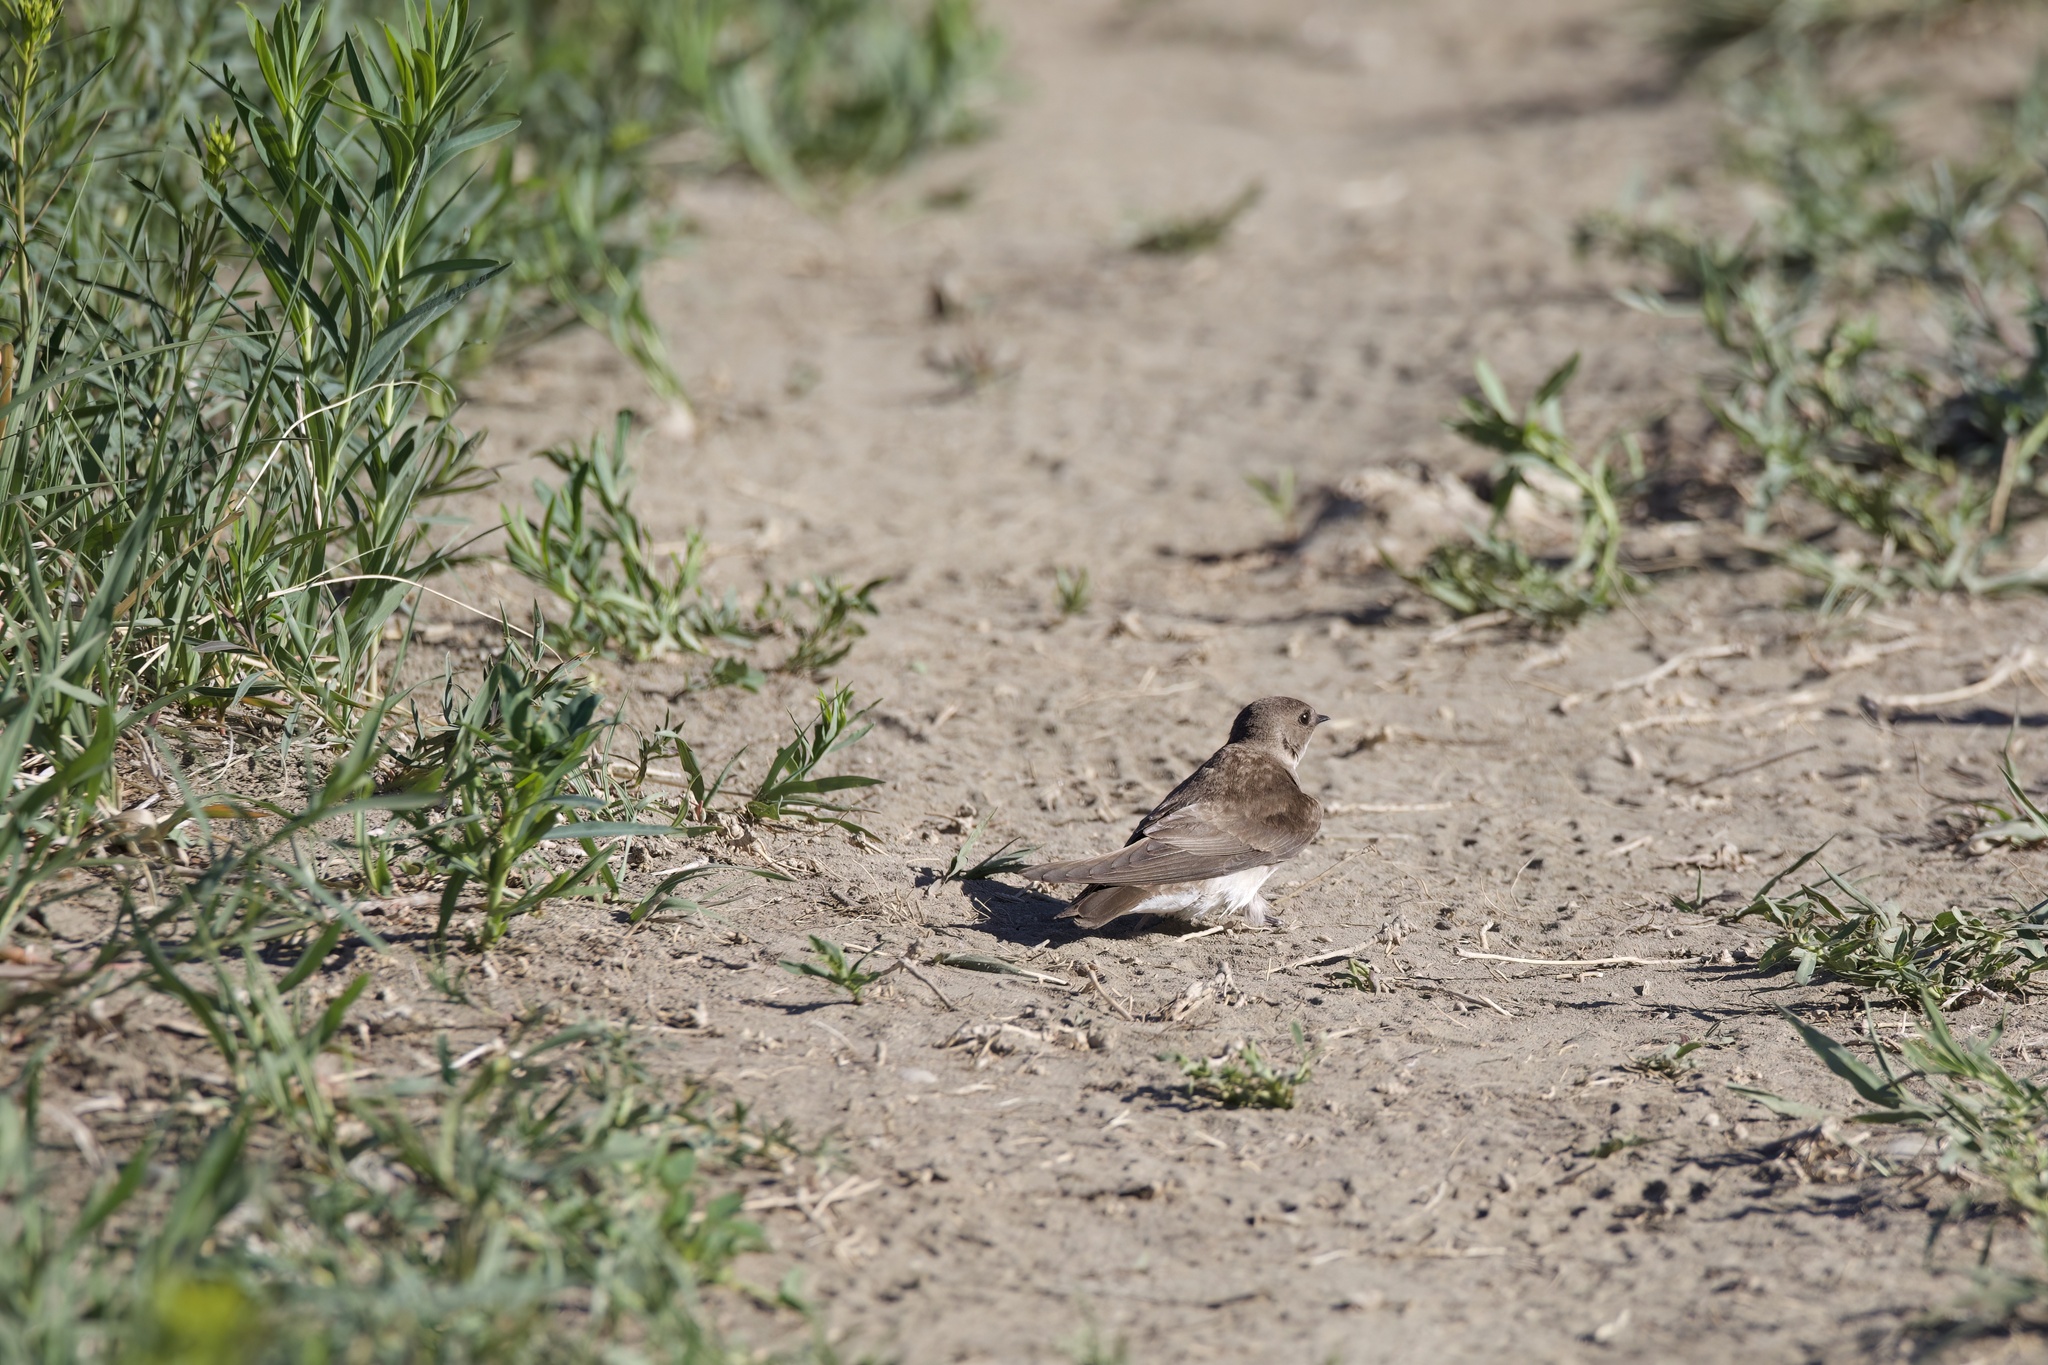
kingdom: Animalia
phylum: Chordata
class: Aves
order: Passeriformes
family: Hirundinidae
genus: Stelgidopteryx
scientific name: Stelgidopteryx serripennis
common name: Northern rough-winged swallow
